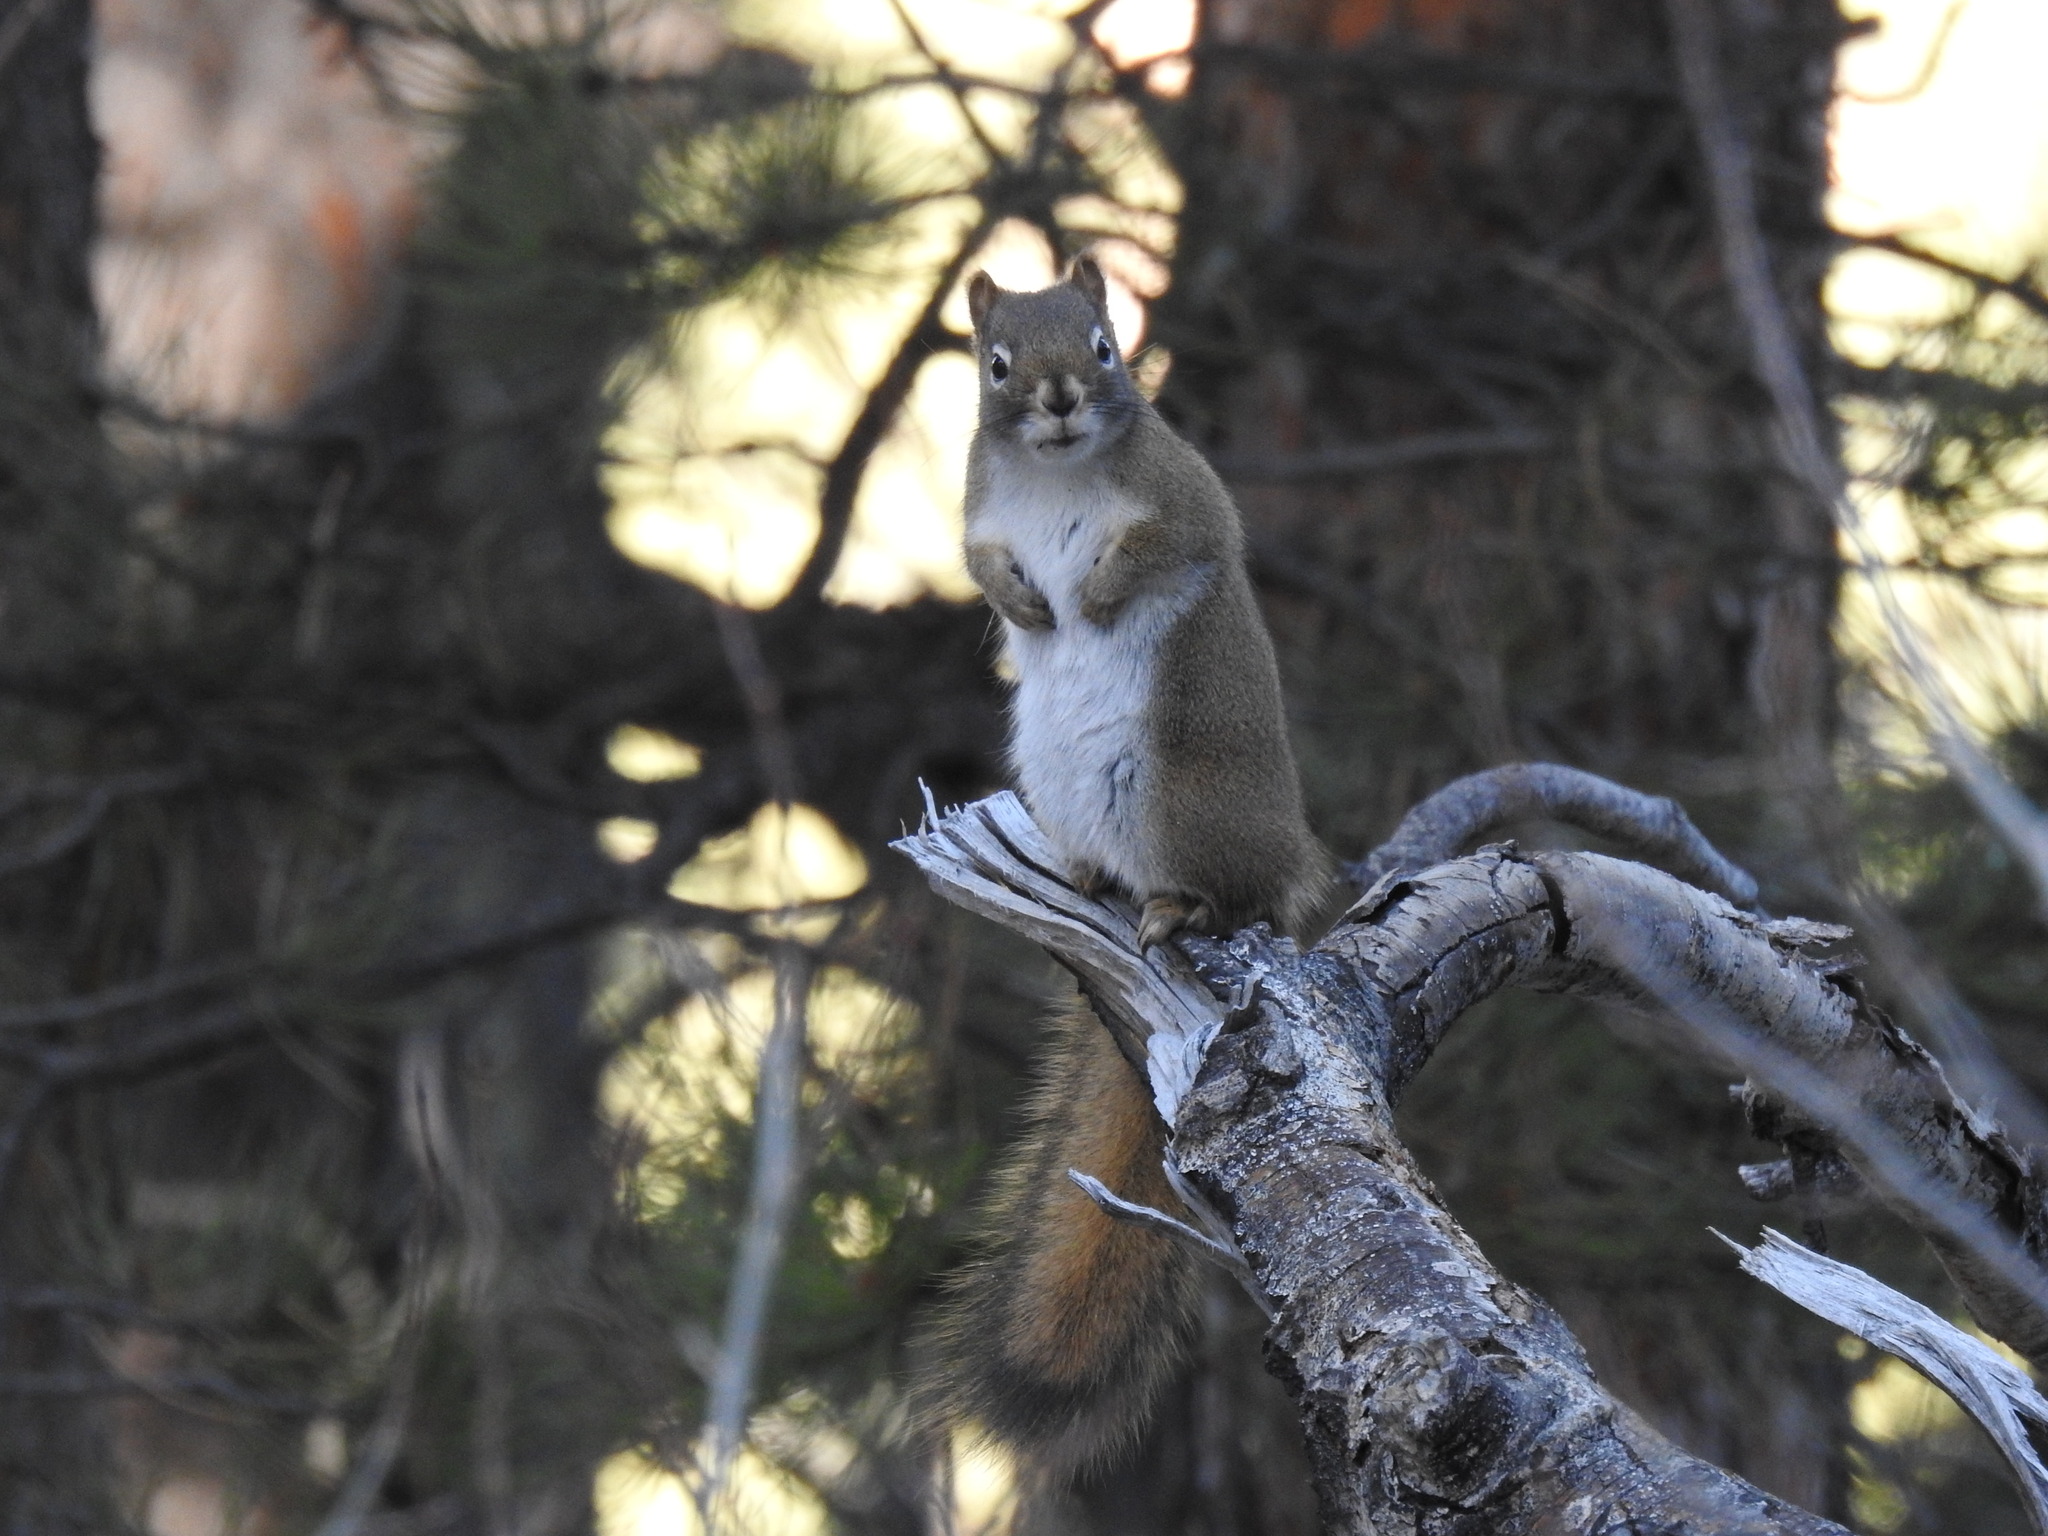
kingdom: Animalia
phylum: Chordata
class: Mammalia
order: Rodentia
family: Sciuridae
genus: Tamiasciurus
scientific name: Tamiasciurus hudsonicus
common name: Red squirrel
